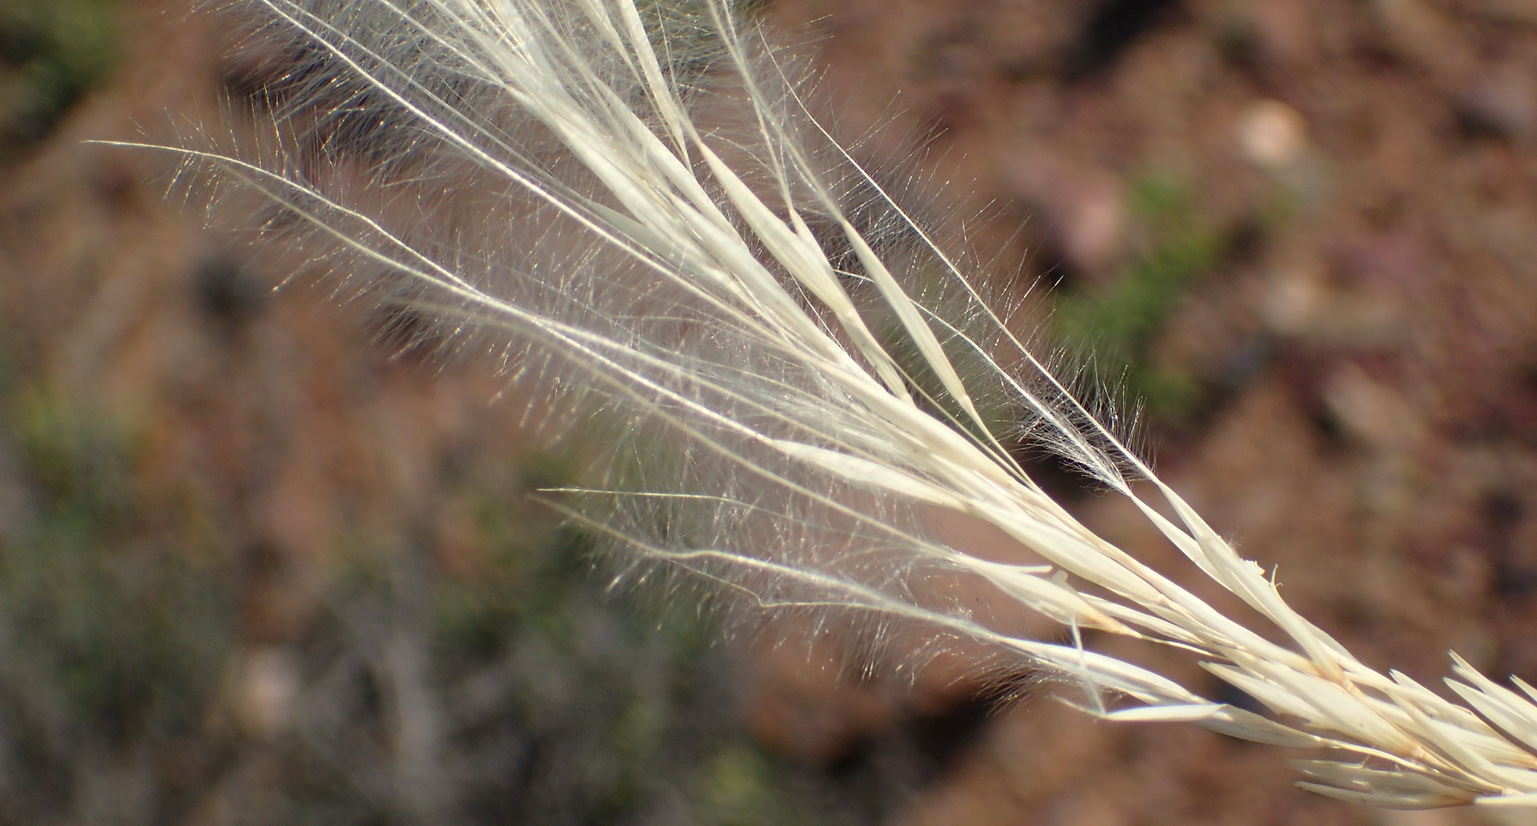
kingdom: Plantae
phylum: Tracheophyta
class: Liliopsida
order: Poales
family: Poaceae
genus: Stipagrostis
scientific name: Stipagrostis ciliata
